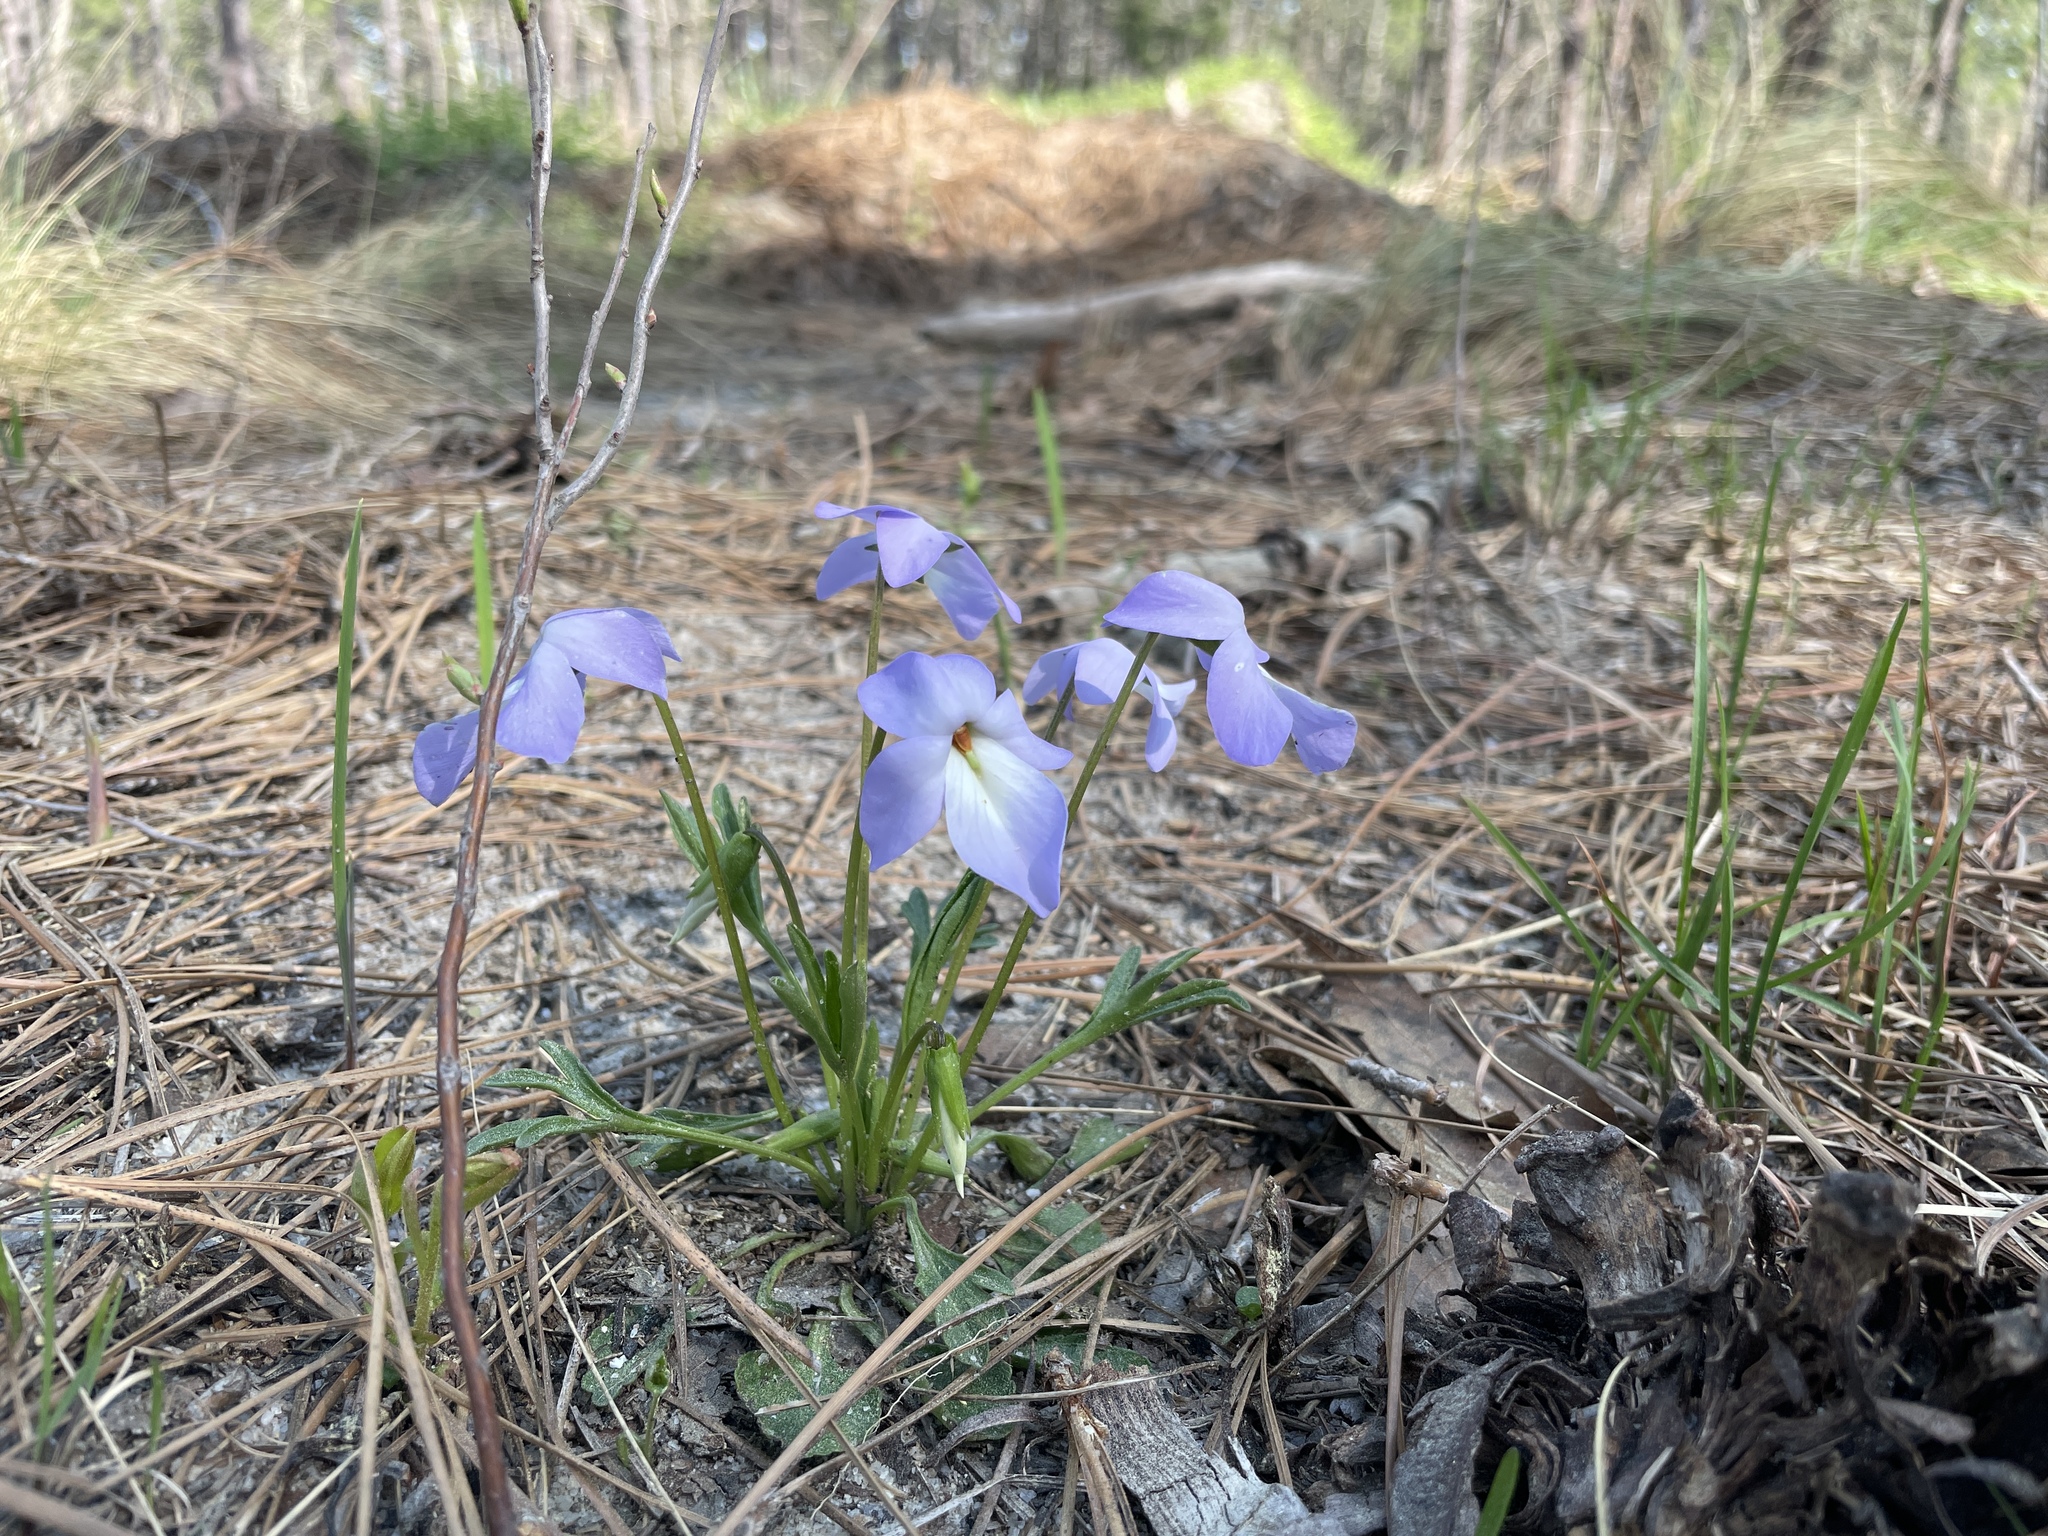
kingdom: Plantae
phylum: Tracheophyta
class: Magnoliopsida
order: Malpighiales
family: Violaceae
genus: Viola
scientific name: Viola pedata
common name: Pansy violet
